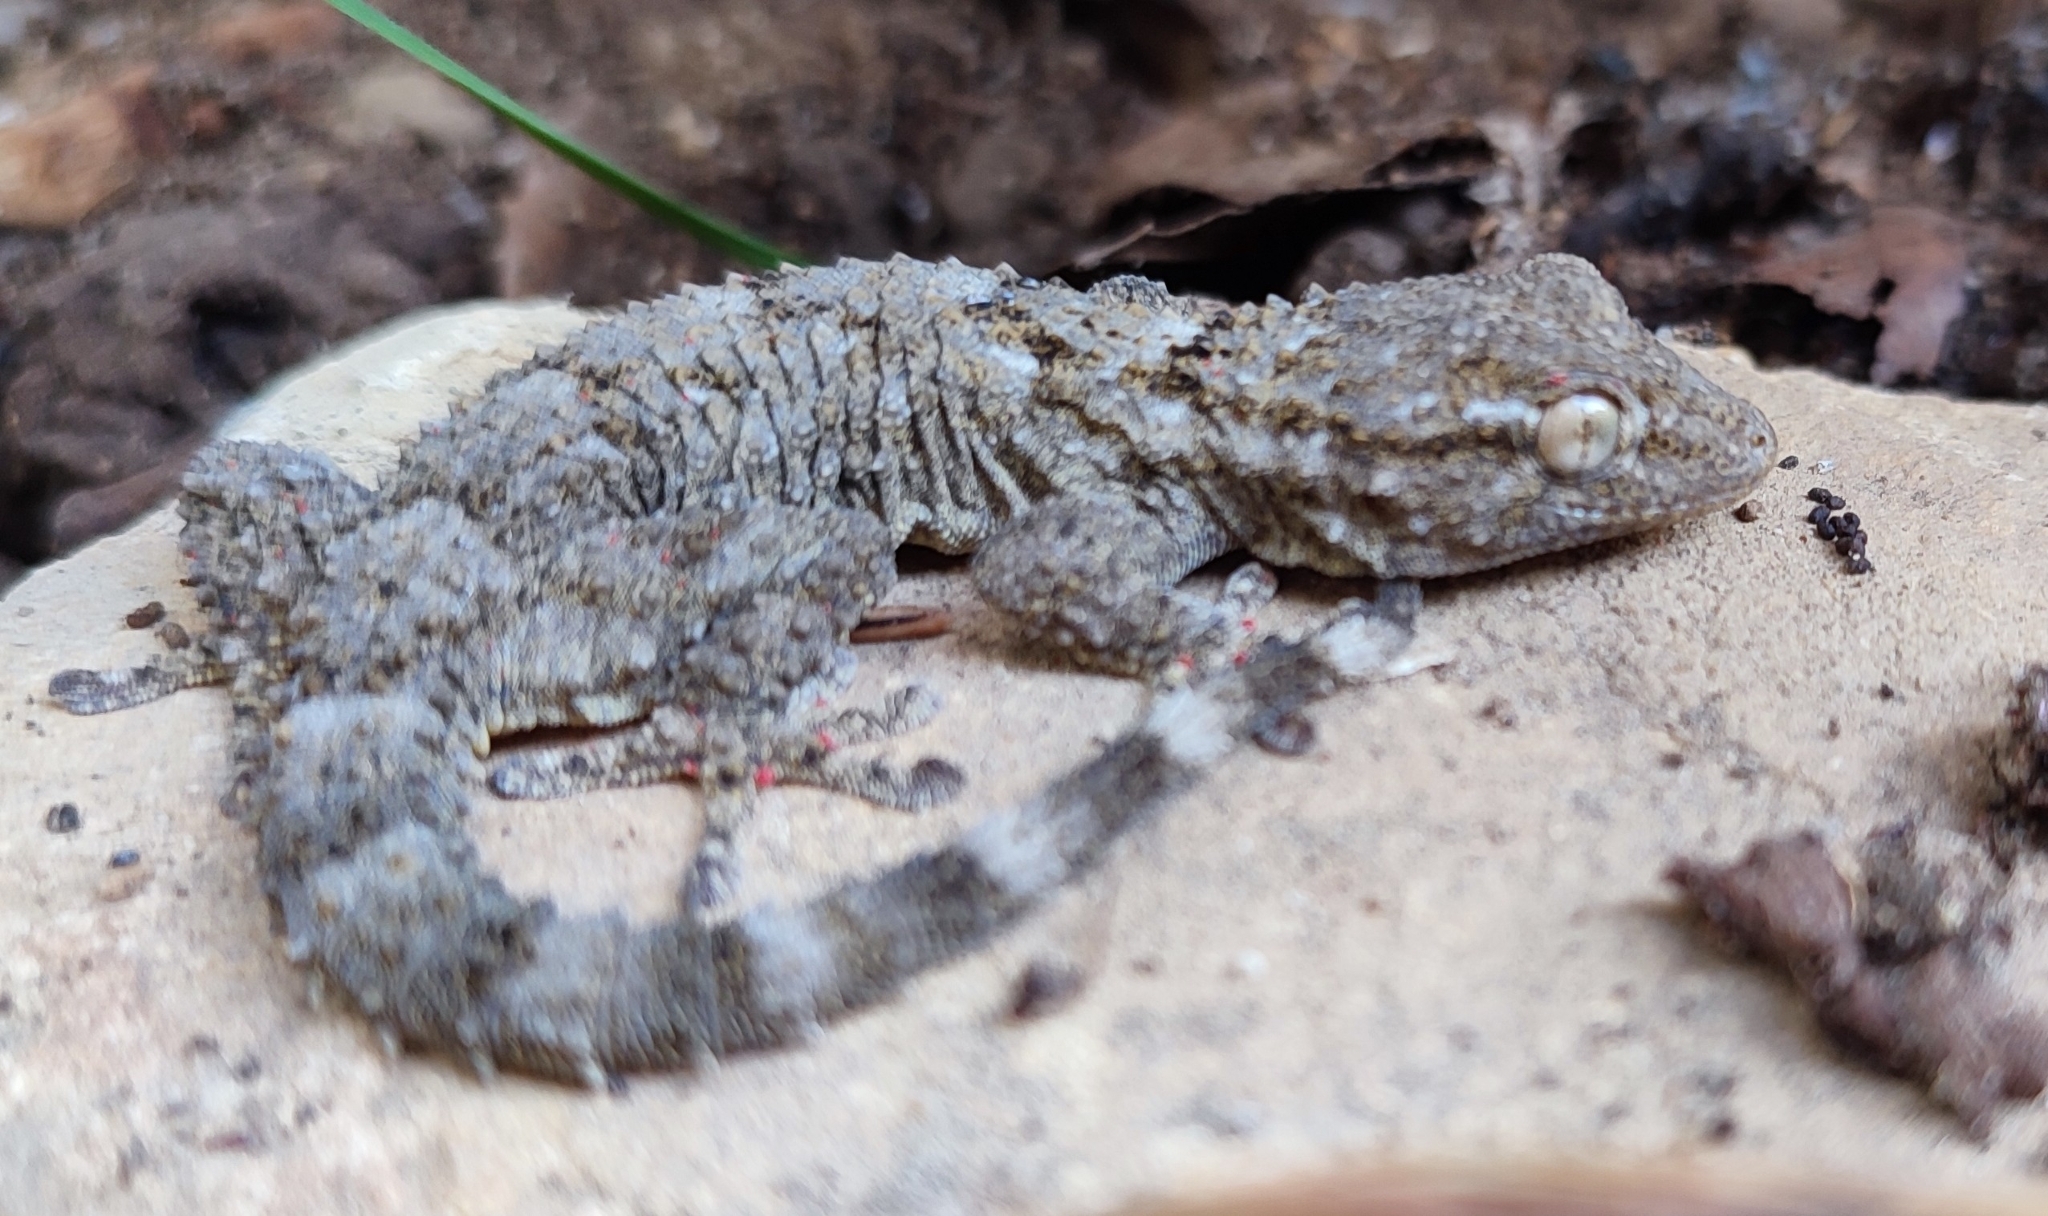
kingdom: Animalia
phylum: Chordata
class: Squamata
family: Phyllodactylidae
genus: Tarentola
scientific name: Tarentola mauritanica
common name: Moorish gecko
